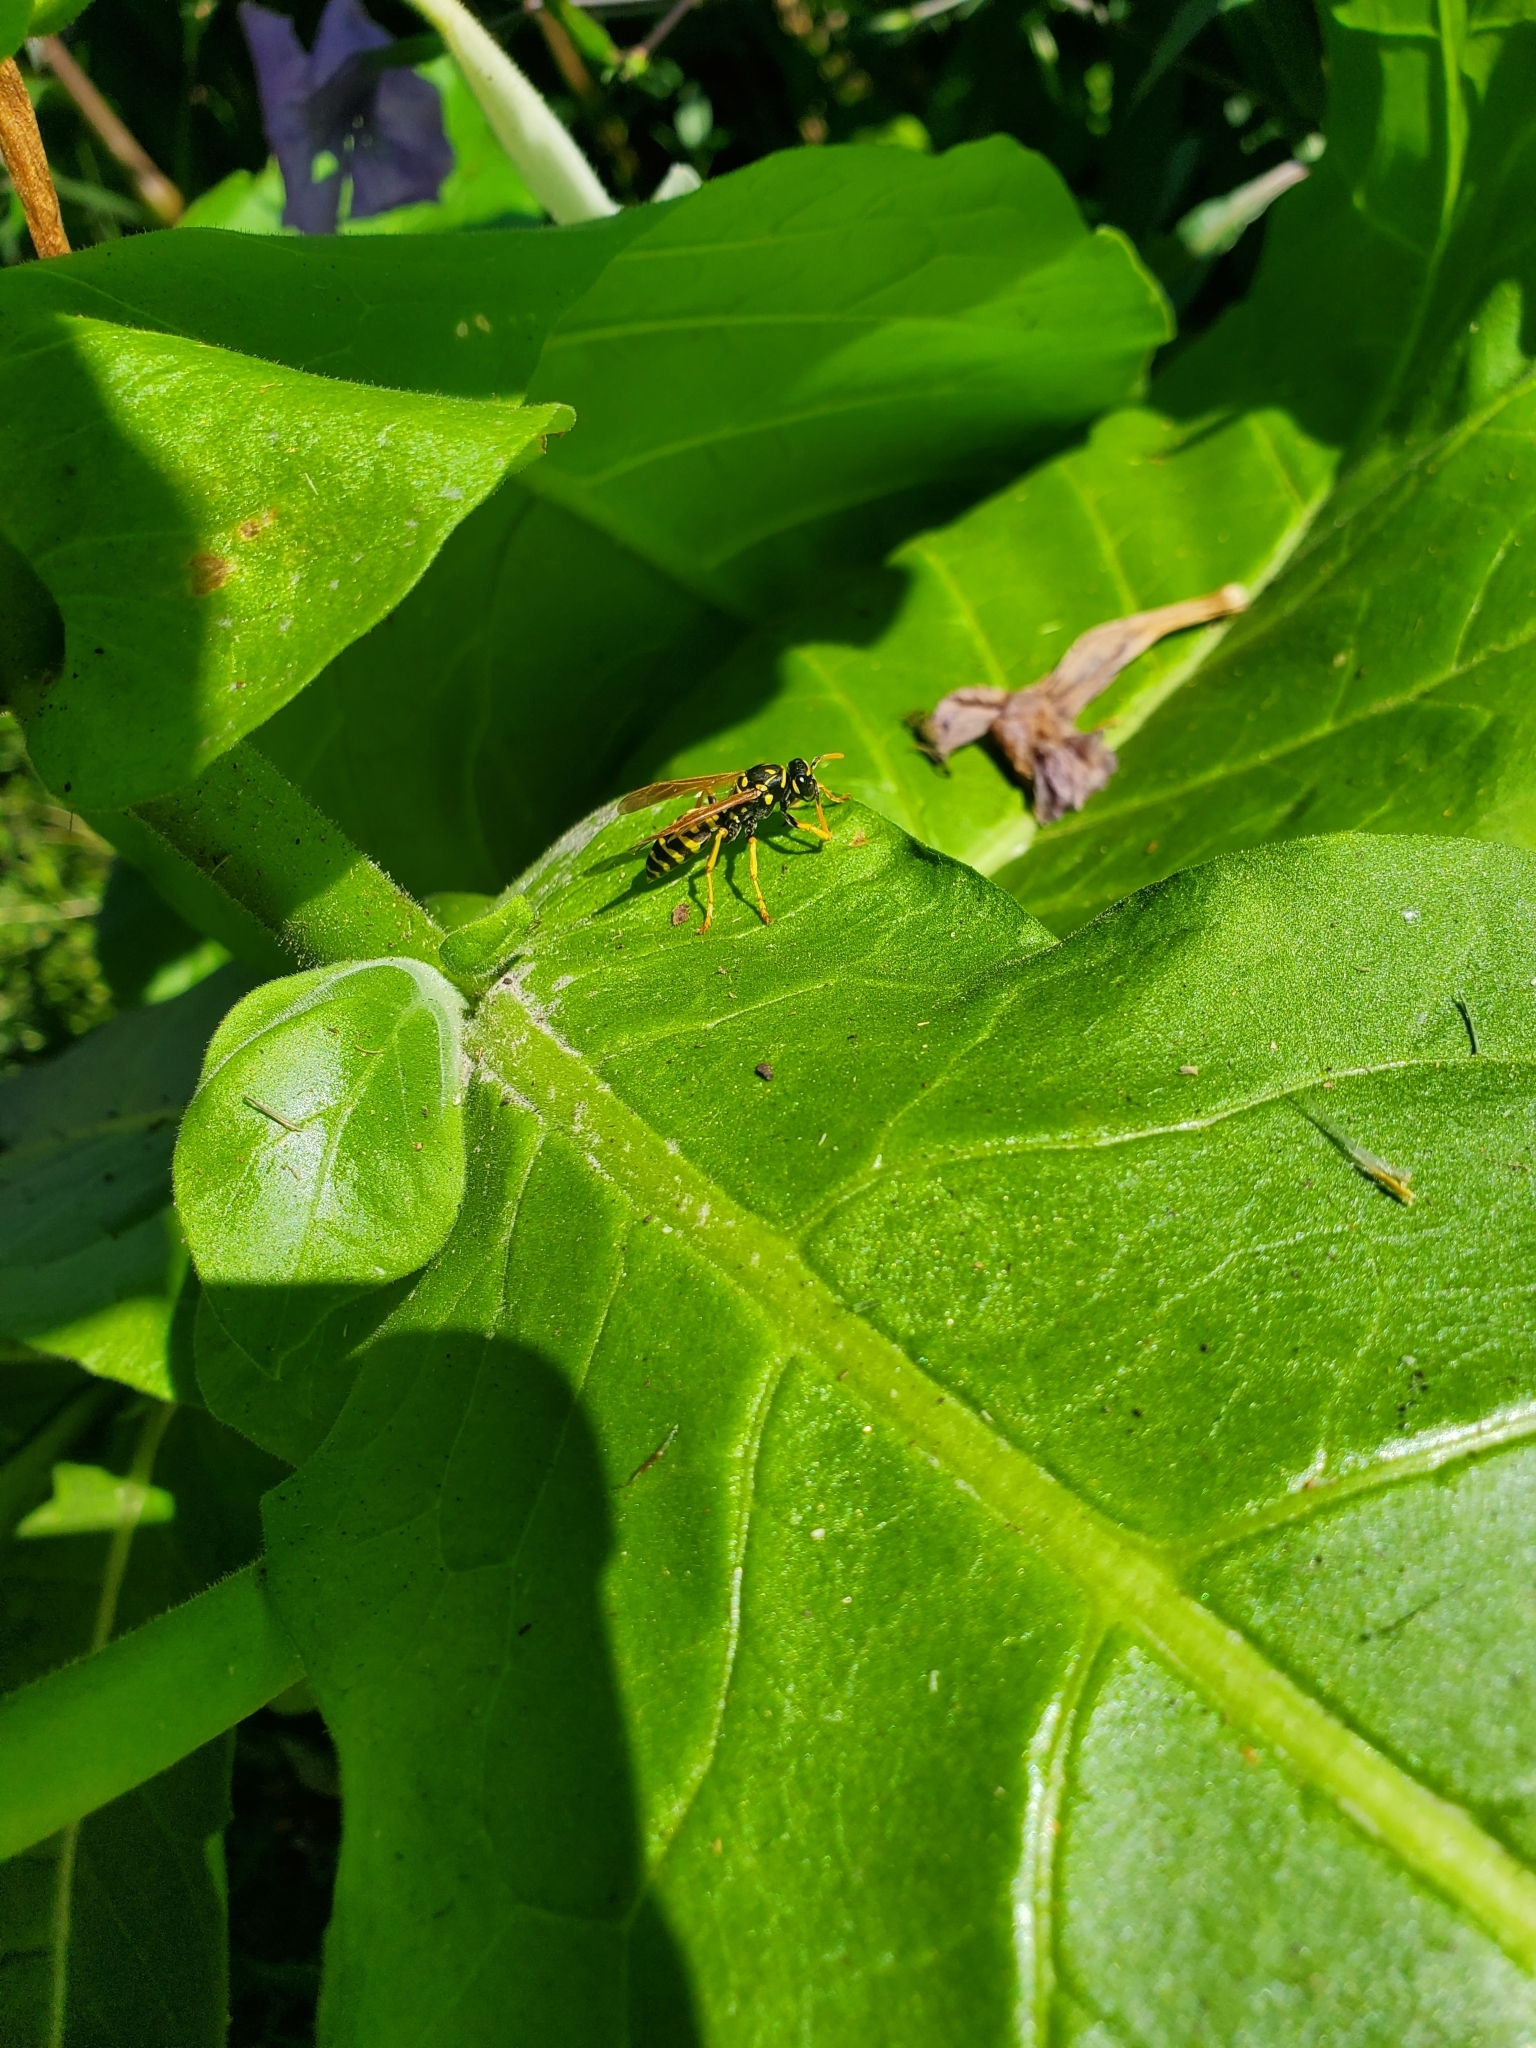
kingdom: Animalia
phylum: Arthropoda
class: Insecta
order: Hymenoptera
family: Eumenidae
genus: Polistes
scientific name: Polistes dominula
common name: Paper wasp
